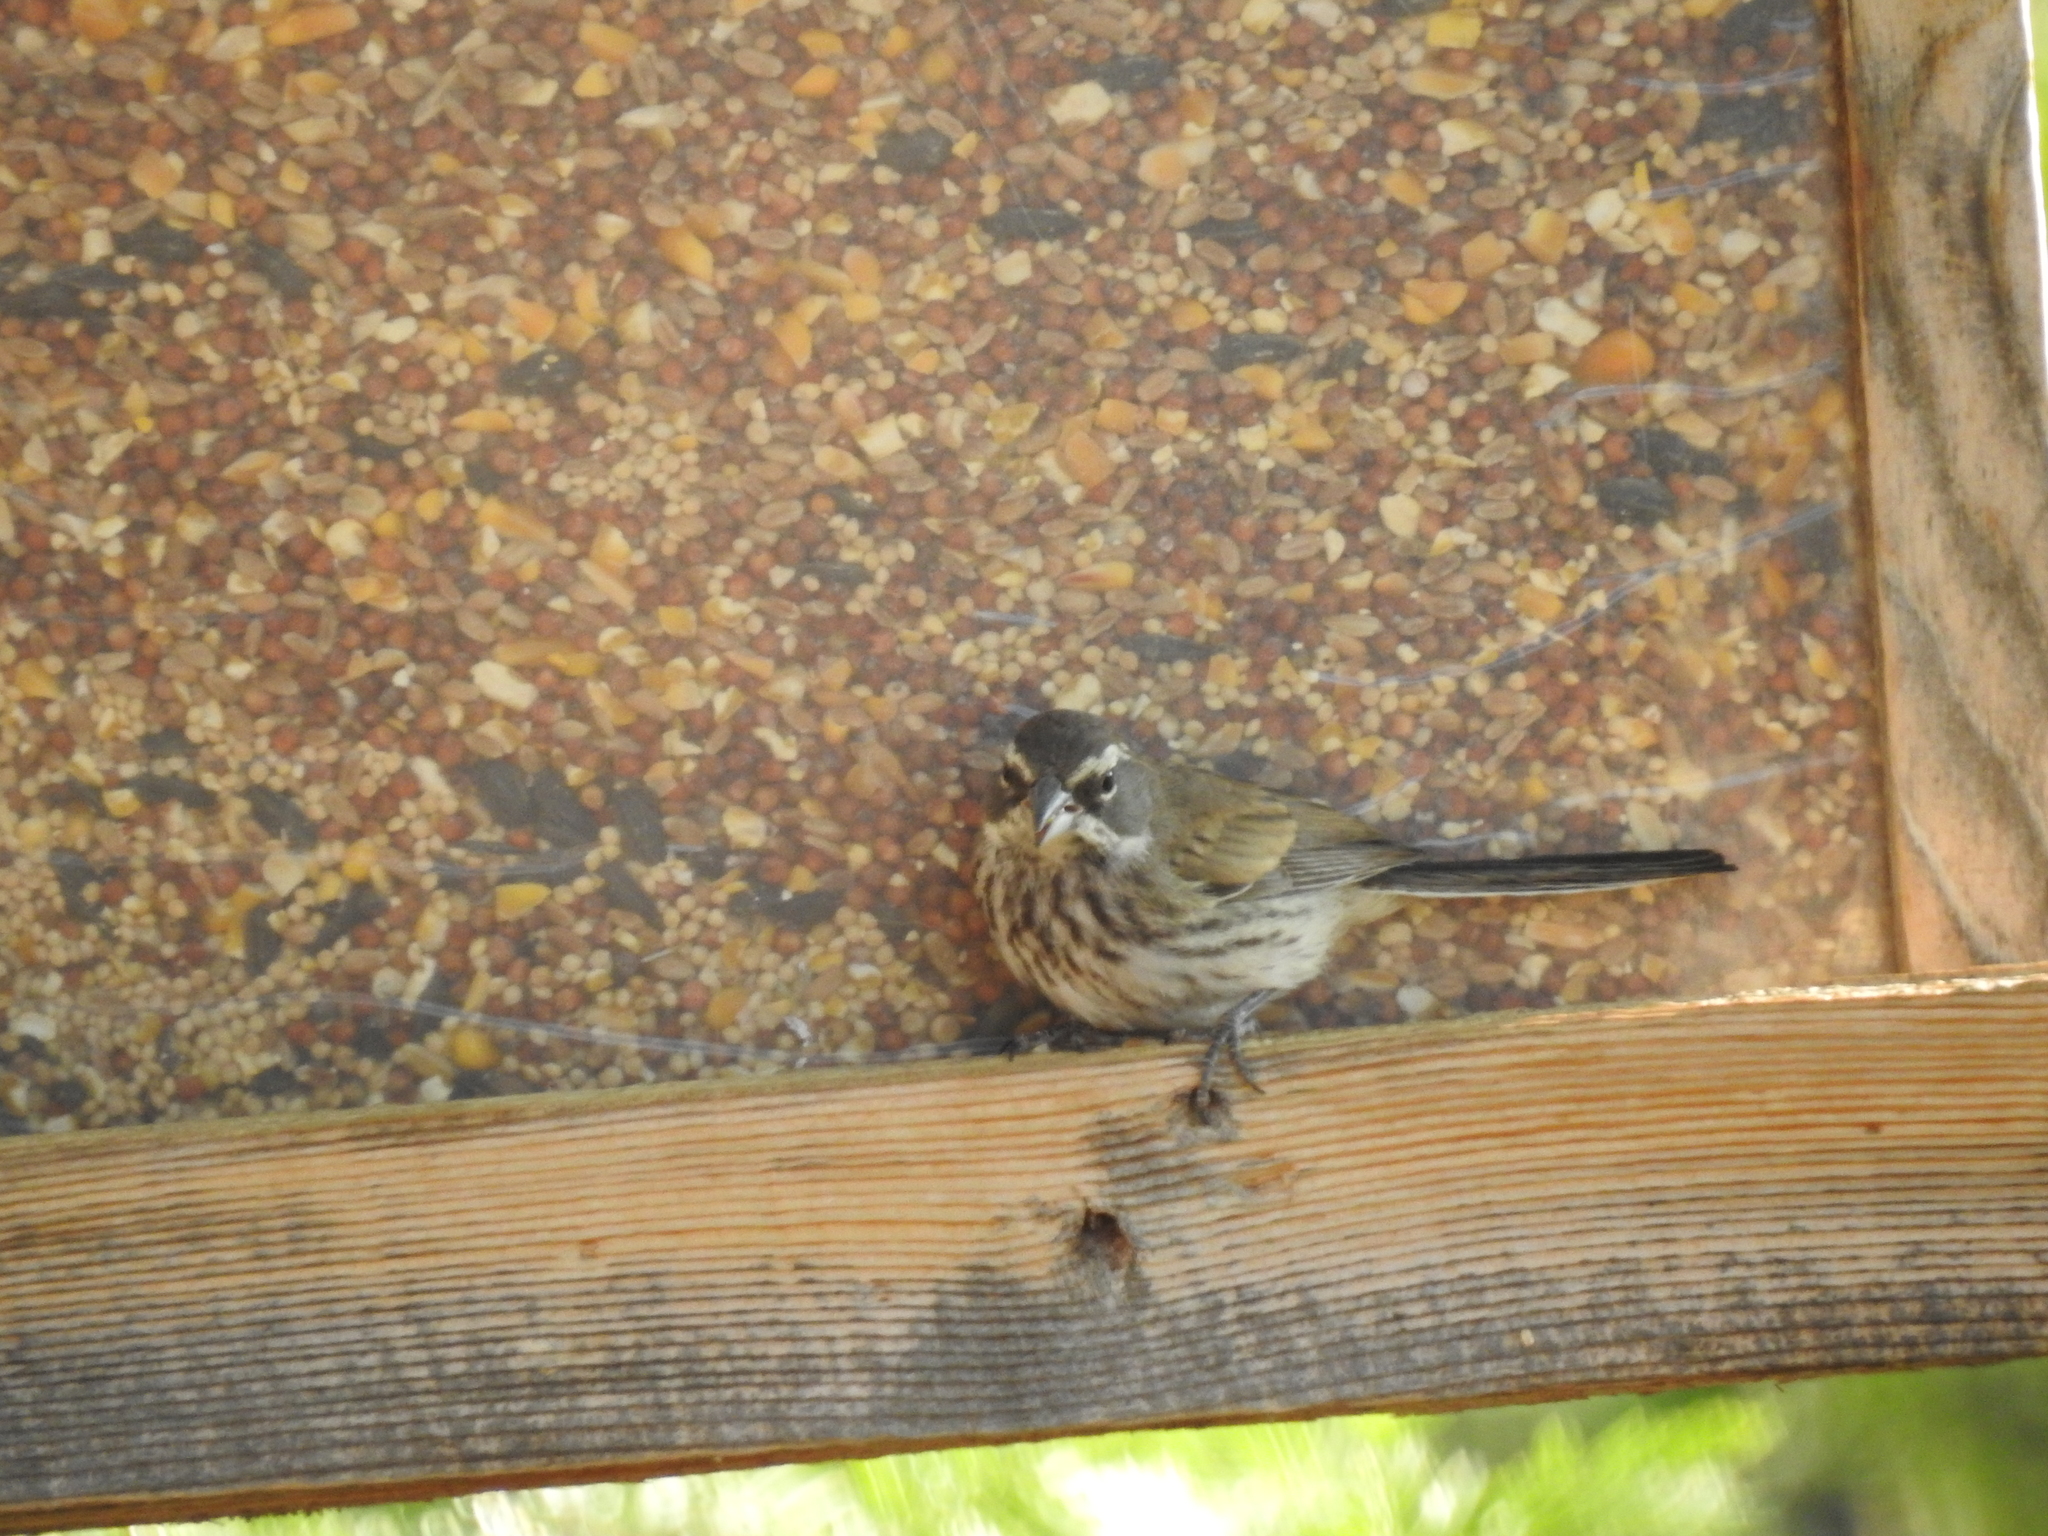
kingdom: Animalia
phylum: Chordata
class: Aves
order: Passeriformes
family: Passerellidae
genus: Amphispiza
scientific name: Amphispiza bilineata
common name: Black-throated sparrow
